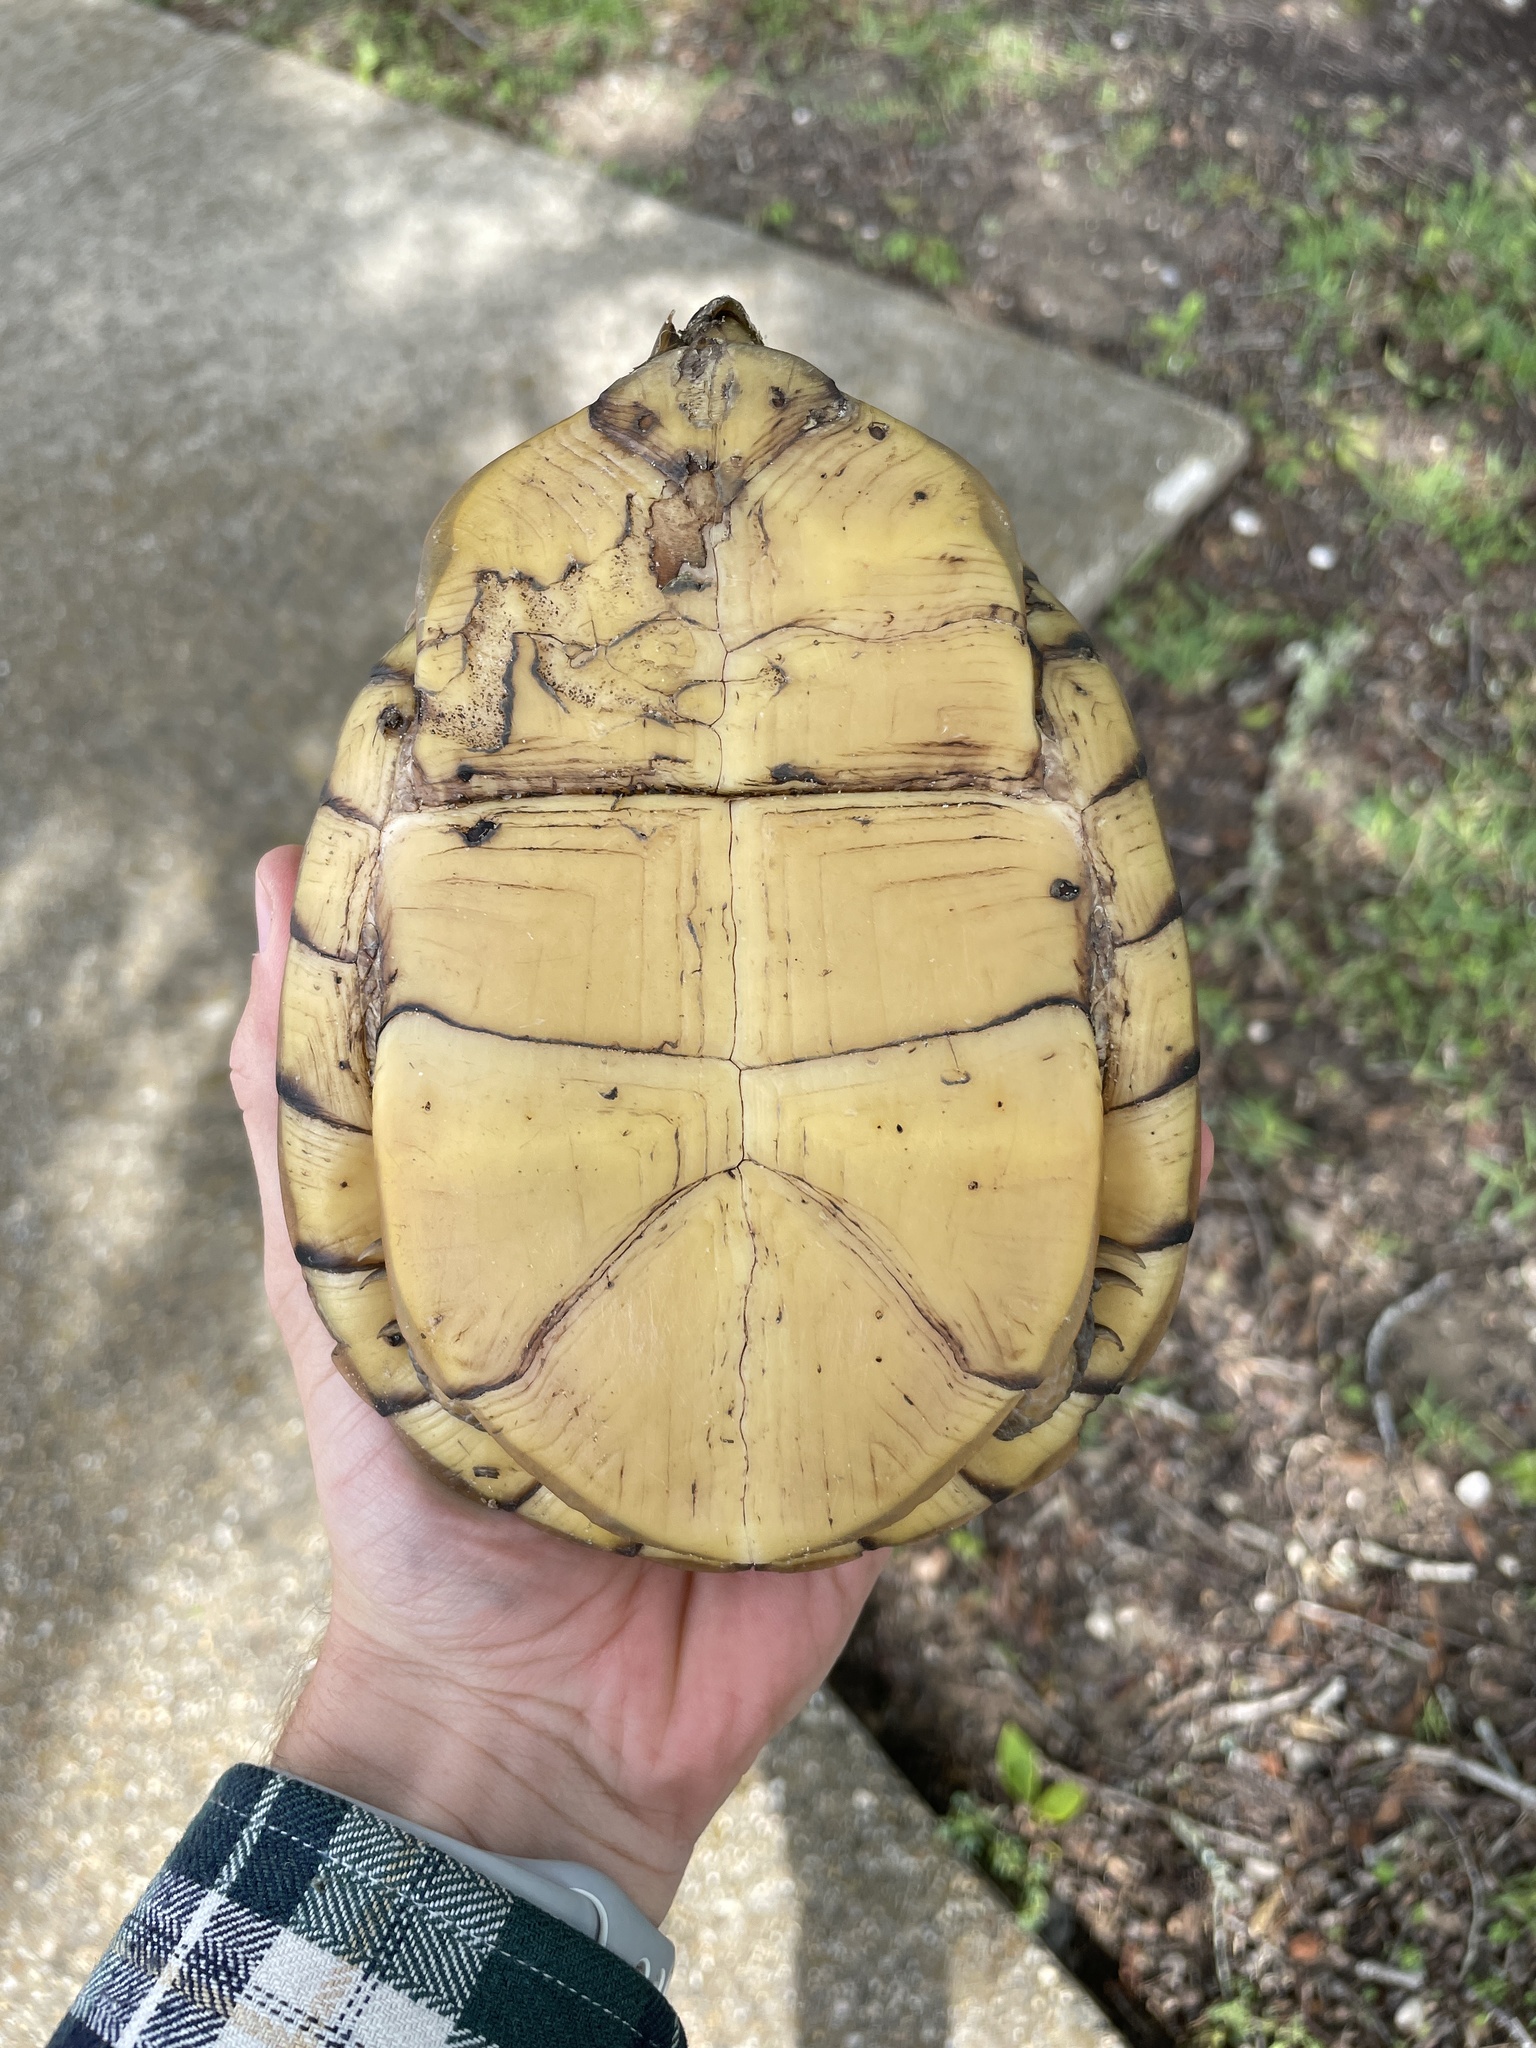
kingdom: Animalia
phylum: Chordata
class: Testudines
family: Emydidae
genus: Terrapene
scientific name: Terrapene carolina
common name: Common box turtle
